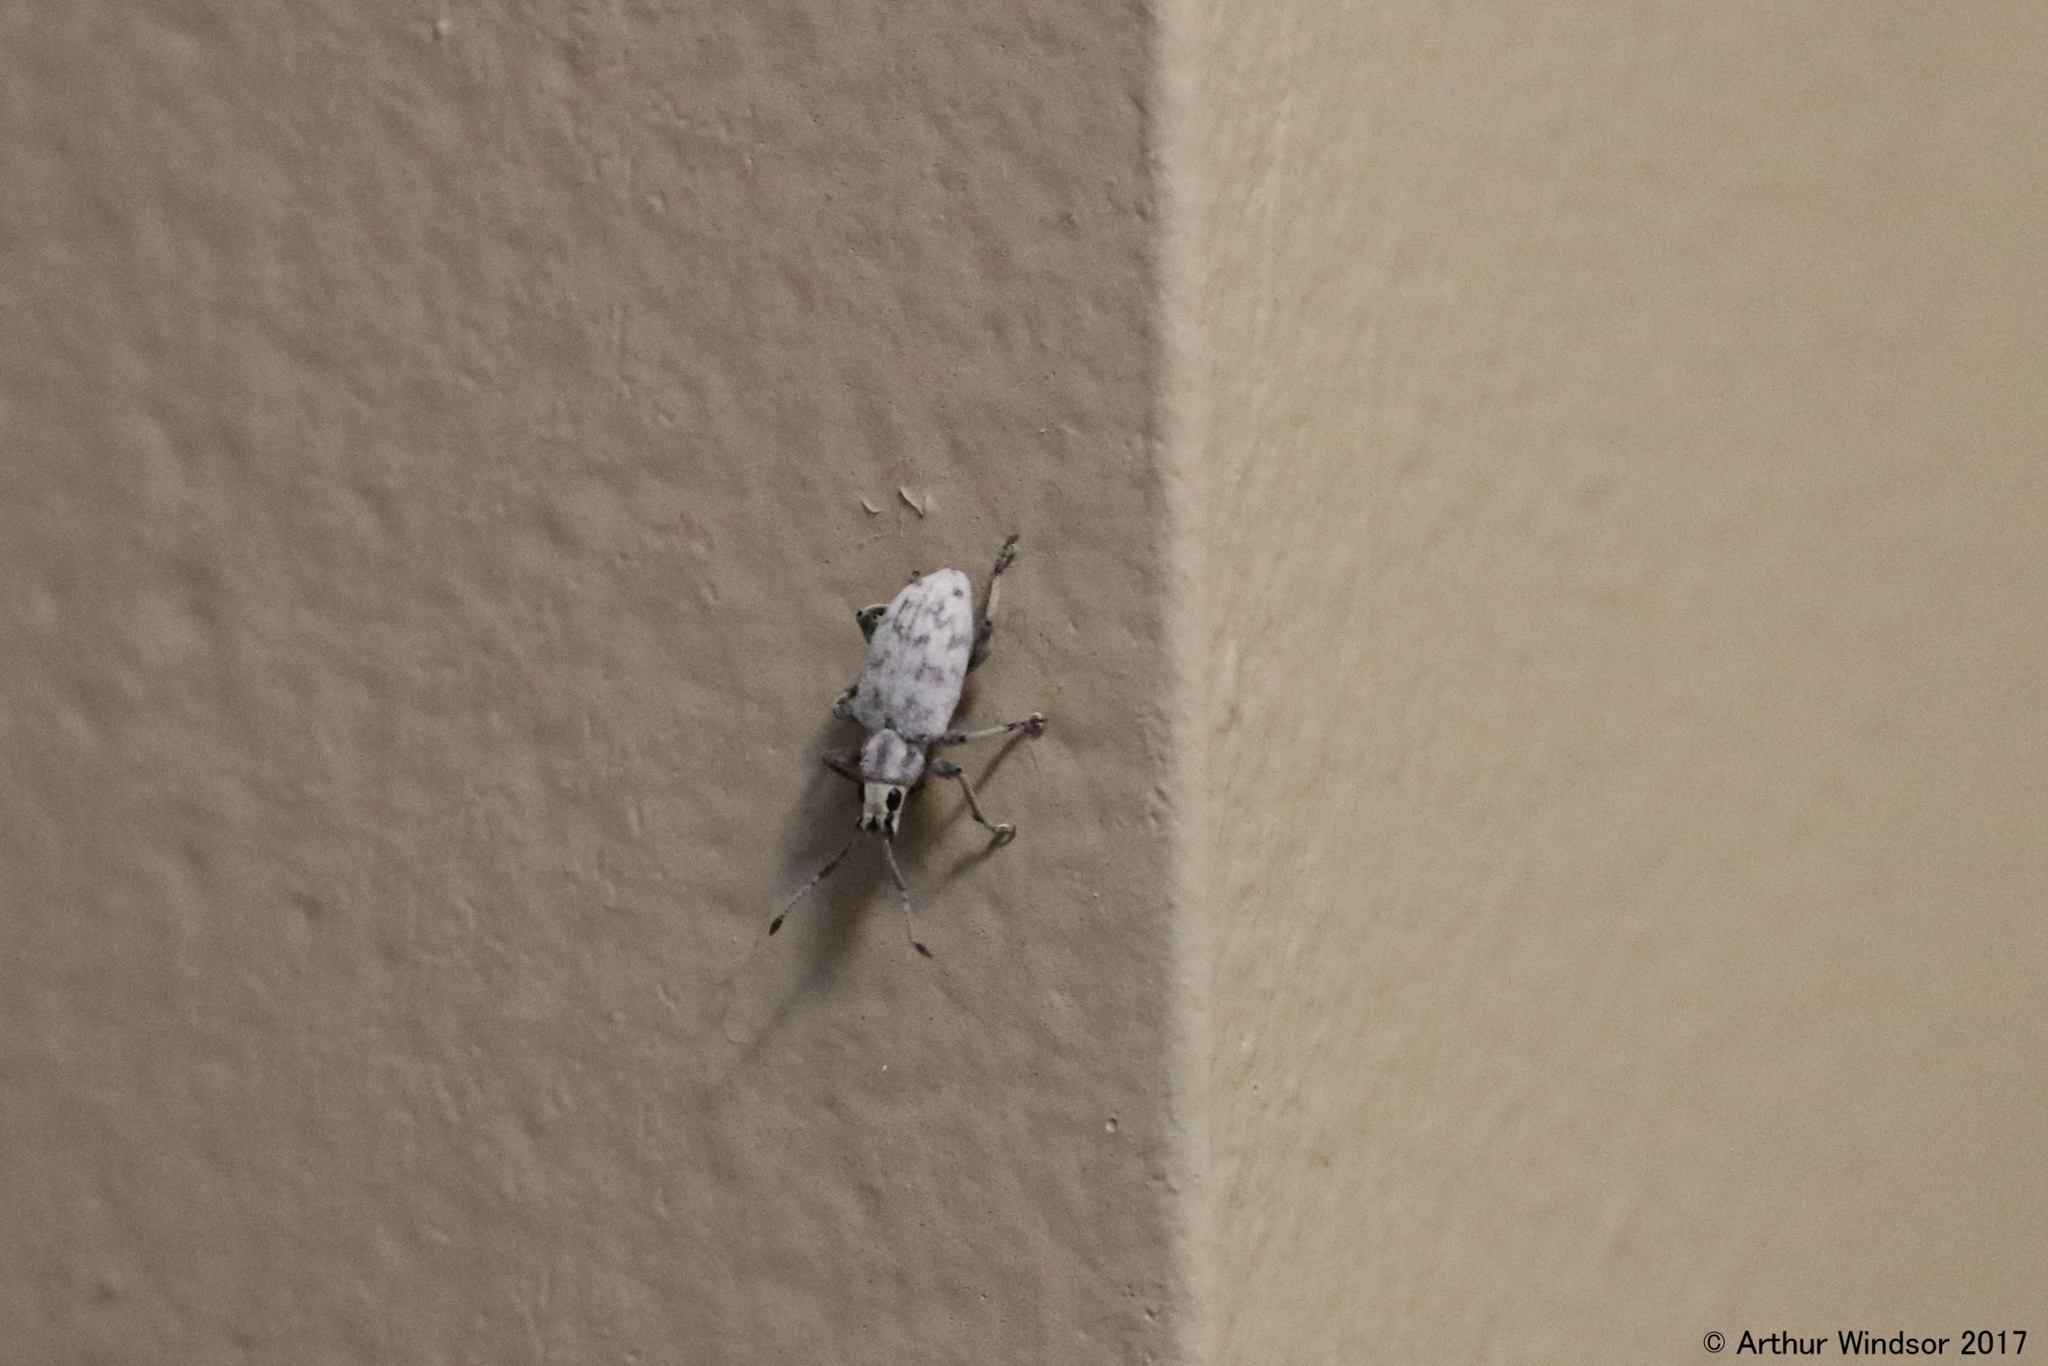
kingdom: Animalia
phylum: Arthropoda
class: Insecta
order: Coleoptera
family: Curculionidae
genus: Myllocerus
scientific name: Myllocerus undecimpustulatus
